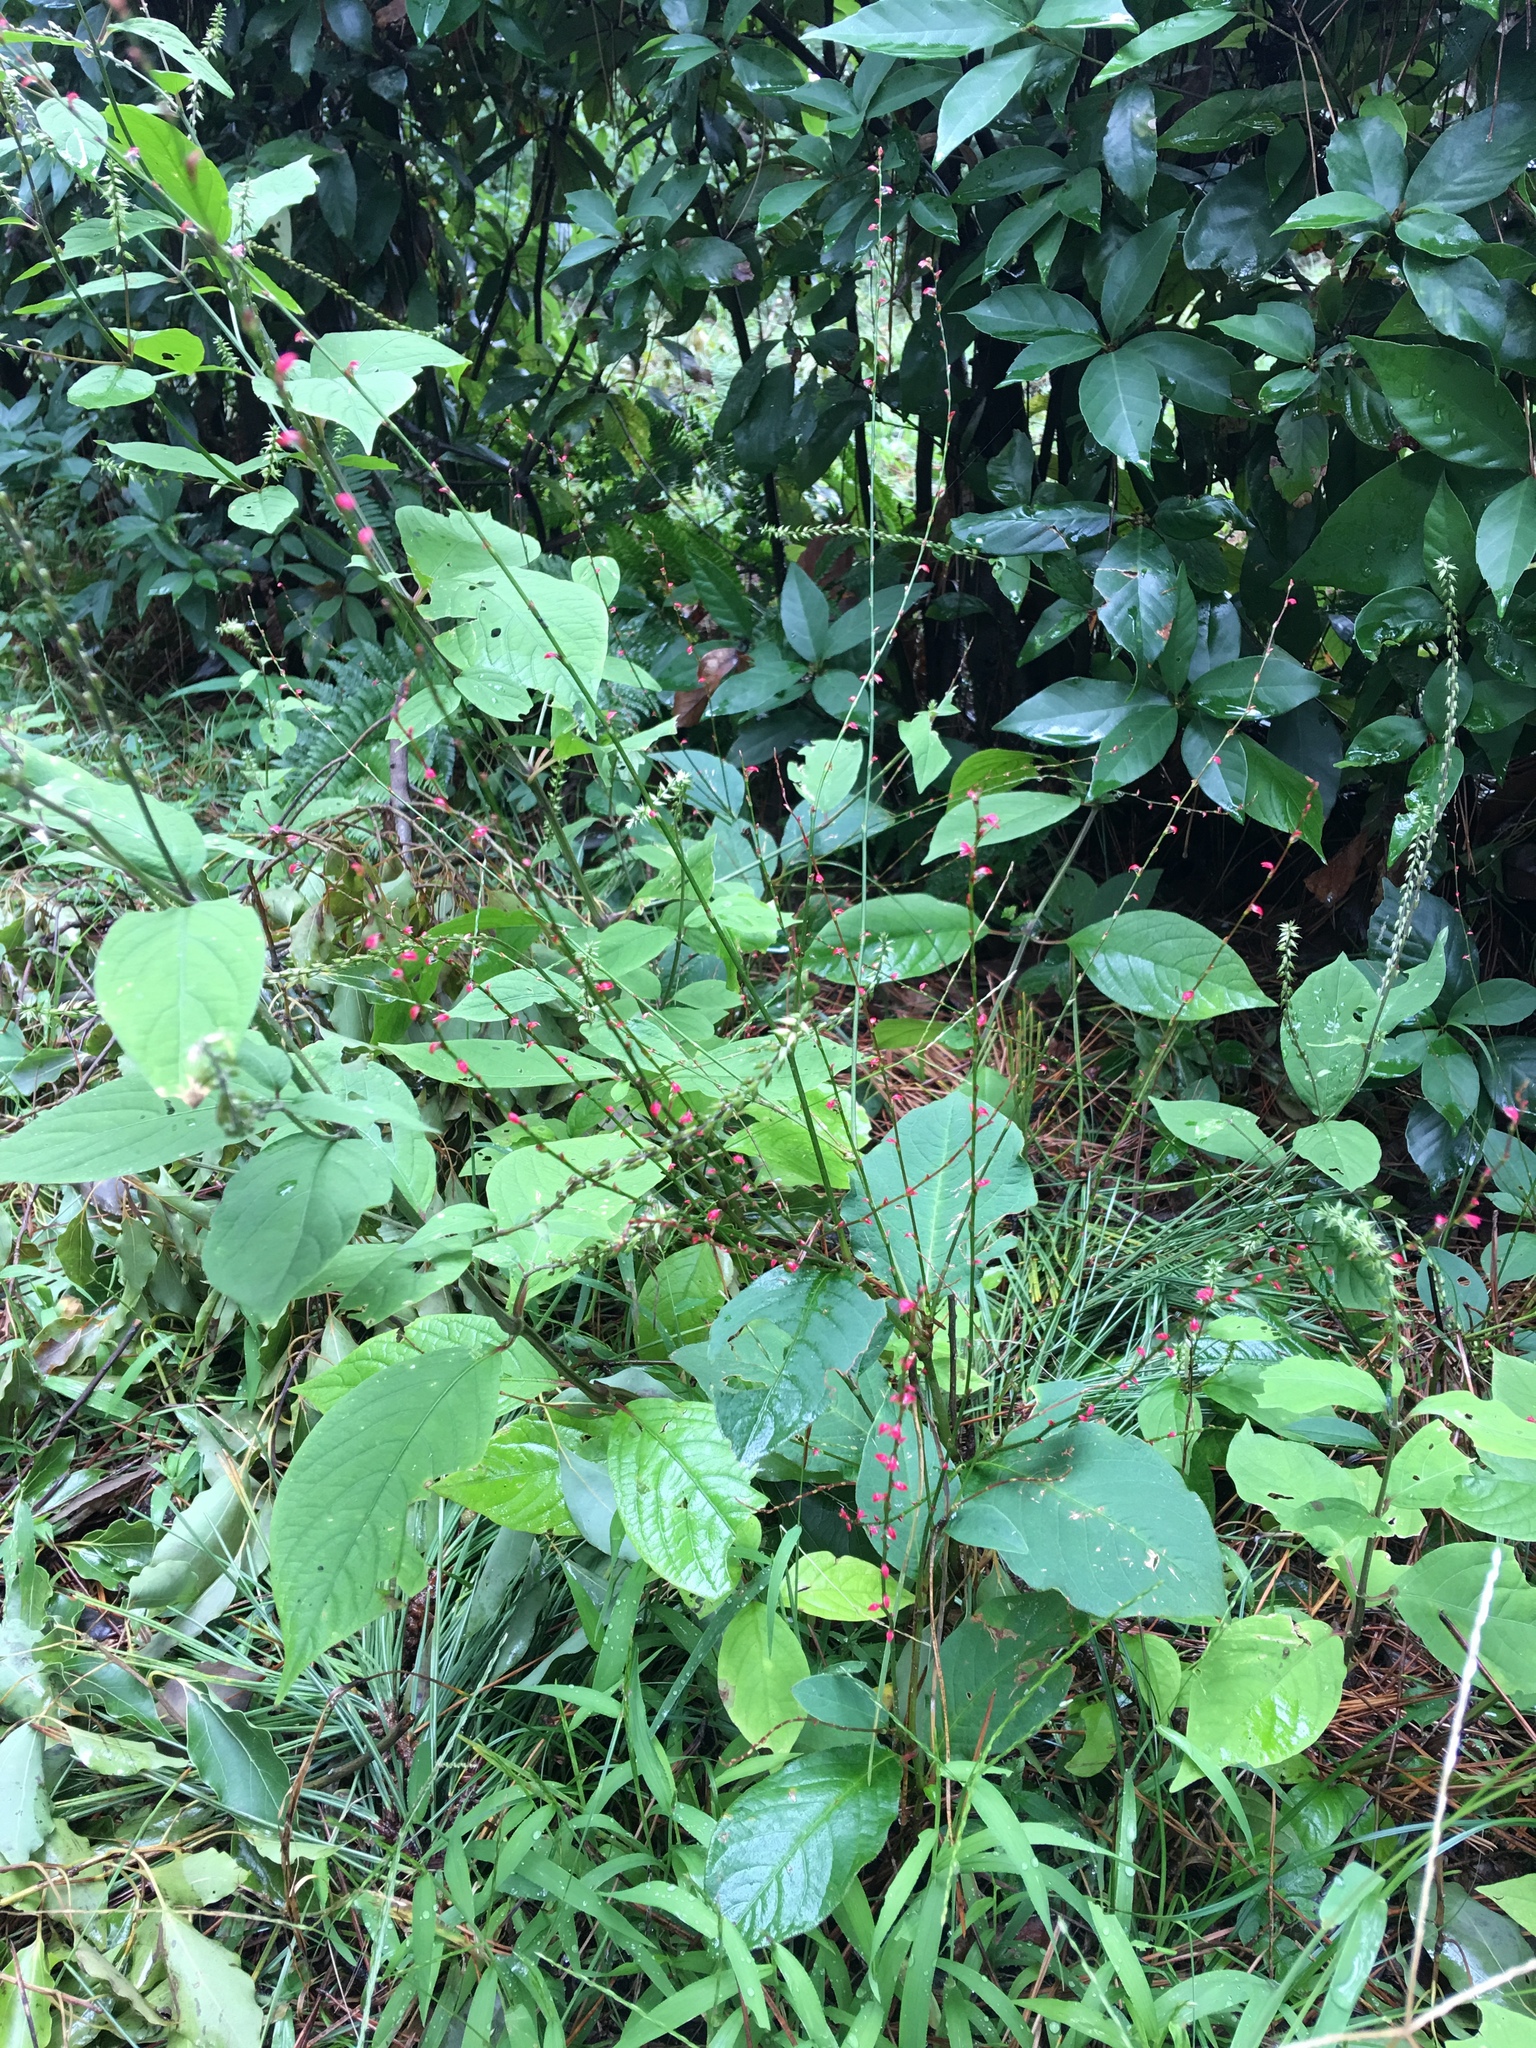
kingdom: Plantae
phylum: Tracheophyta
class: Magnoliopsida
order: Caryophyllales
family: Polygonaceae
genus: Persicaria
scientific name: Persicaria filiformis
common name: Asian jumpseed
